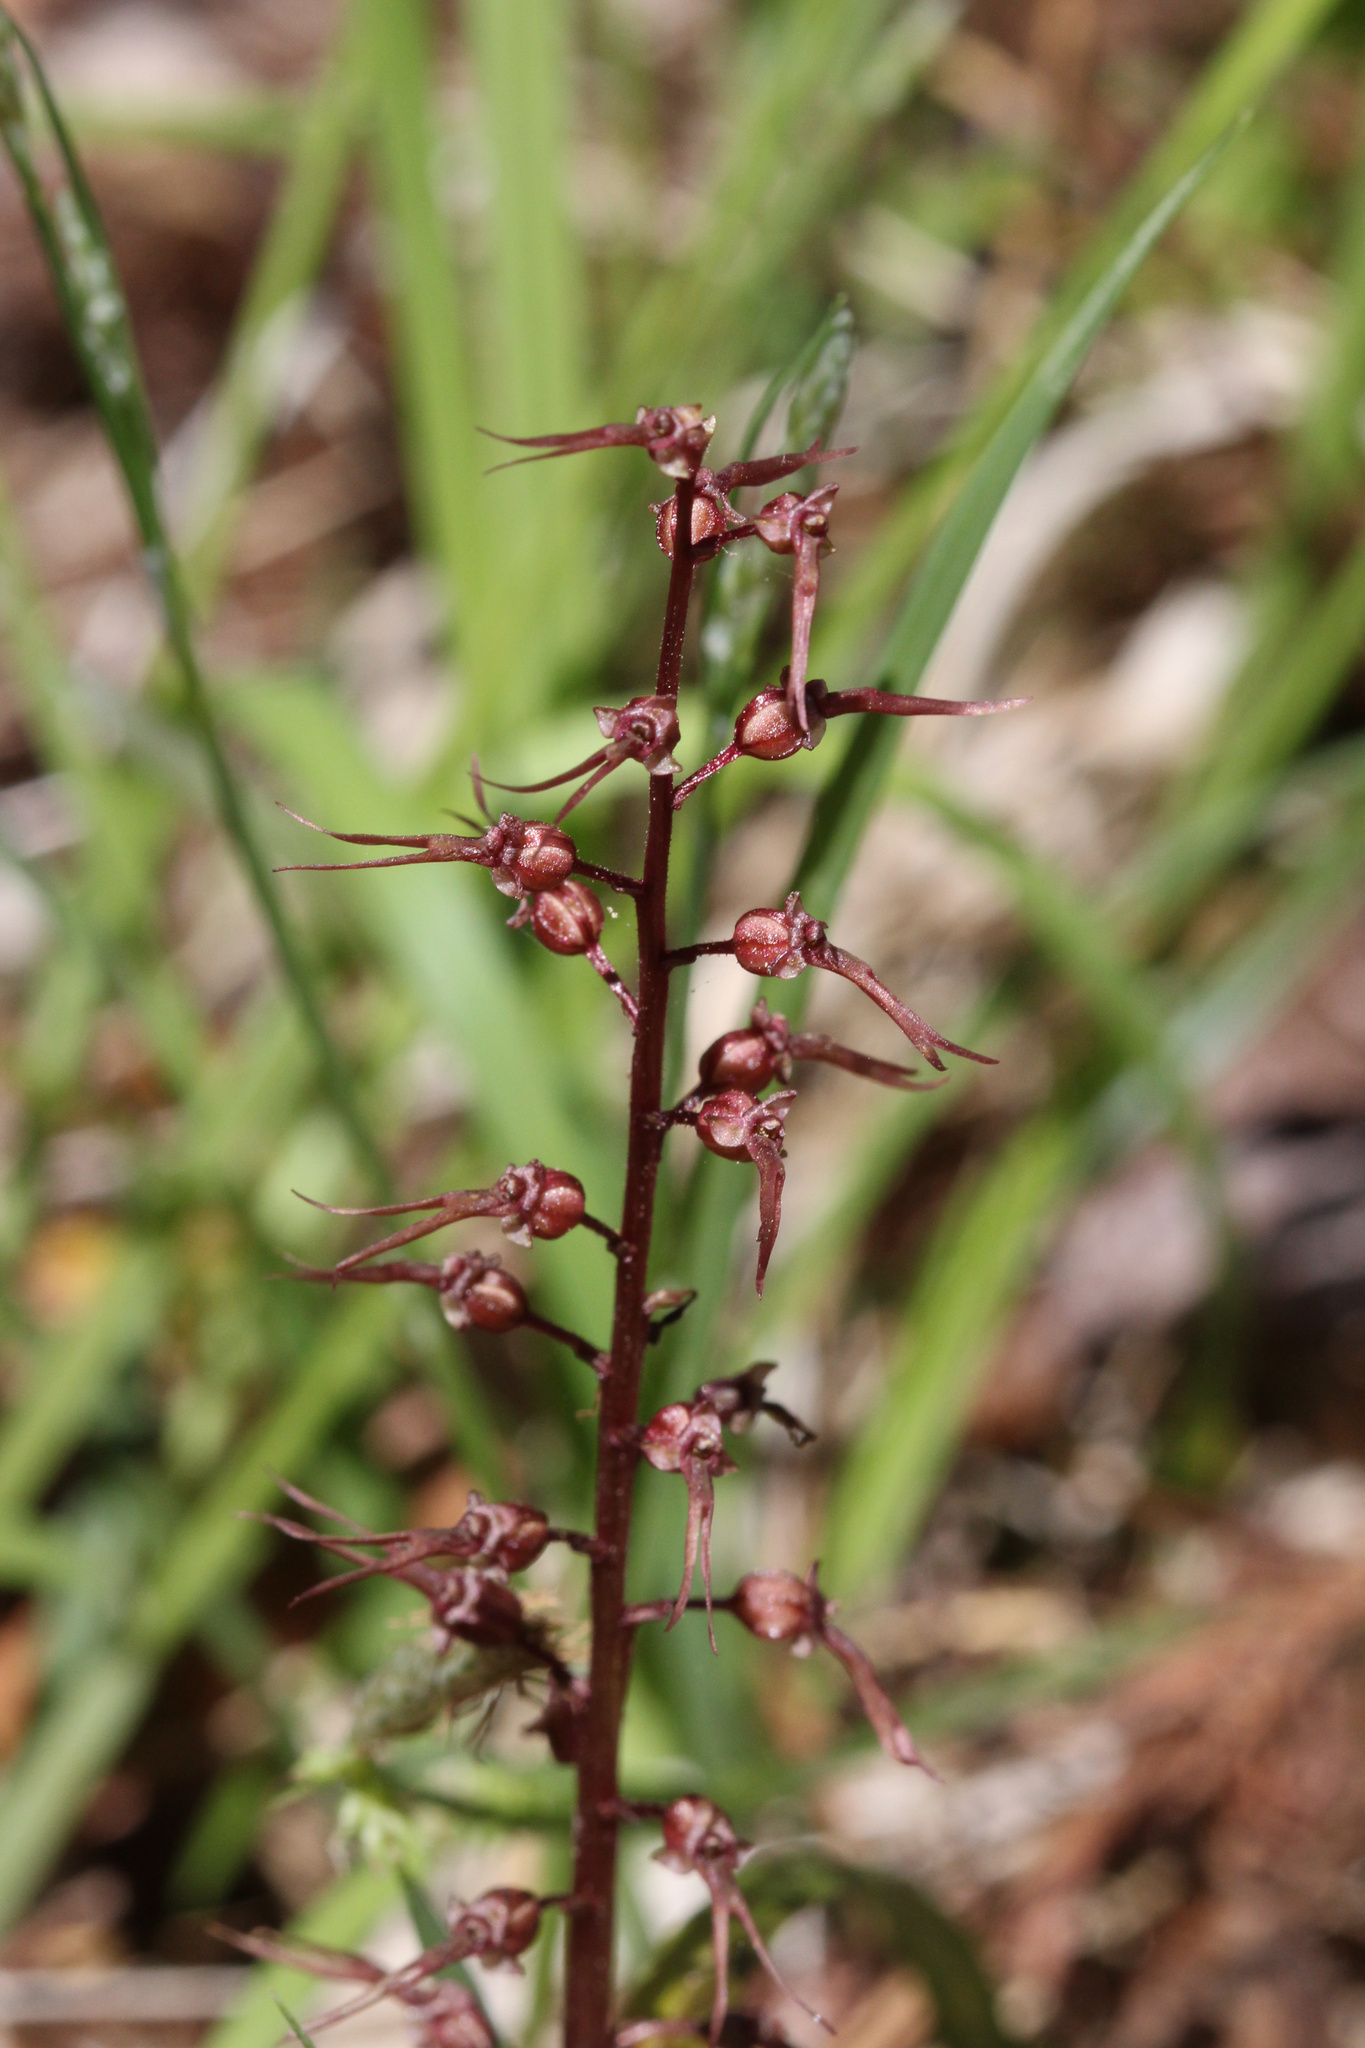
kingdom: Plantae
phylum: Tracheophyta
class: Liliopsida
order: Asparagales
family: Orchidaceae
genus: Neottia
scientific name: Neottia bifolia
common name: Southern twayblade
